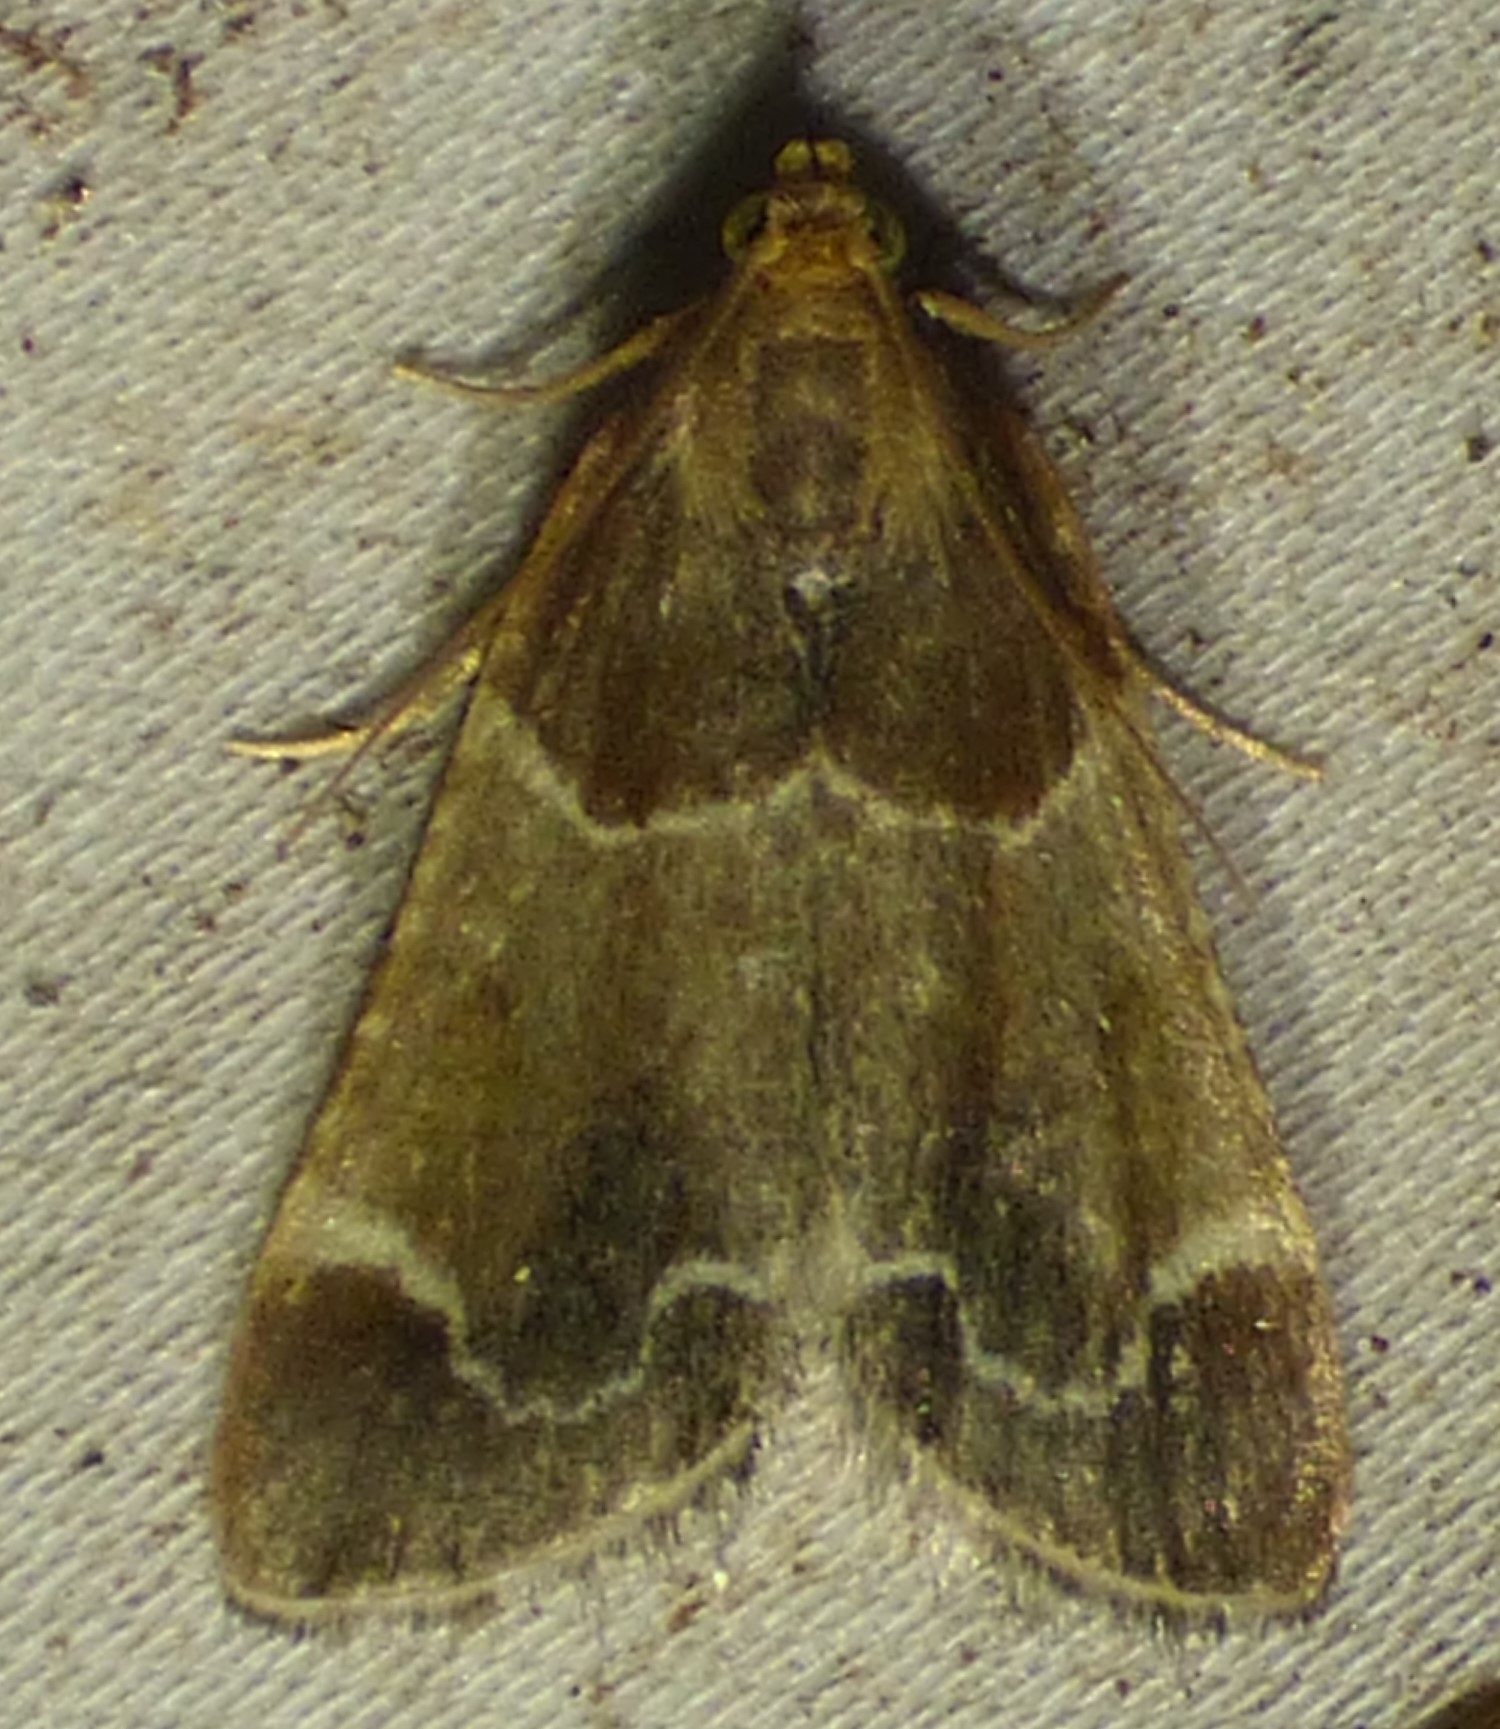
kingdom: Animalia
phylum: Arthropoda
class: Insecta
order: Lepidoptera
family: Pyralidae
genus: Pyralis
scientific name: Pyralis farinalis
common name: Meal moth
